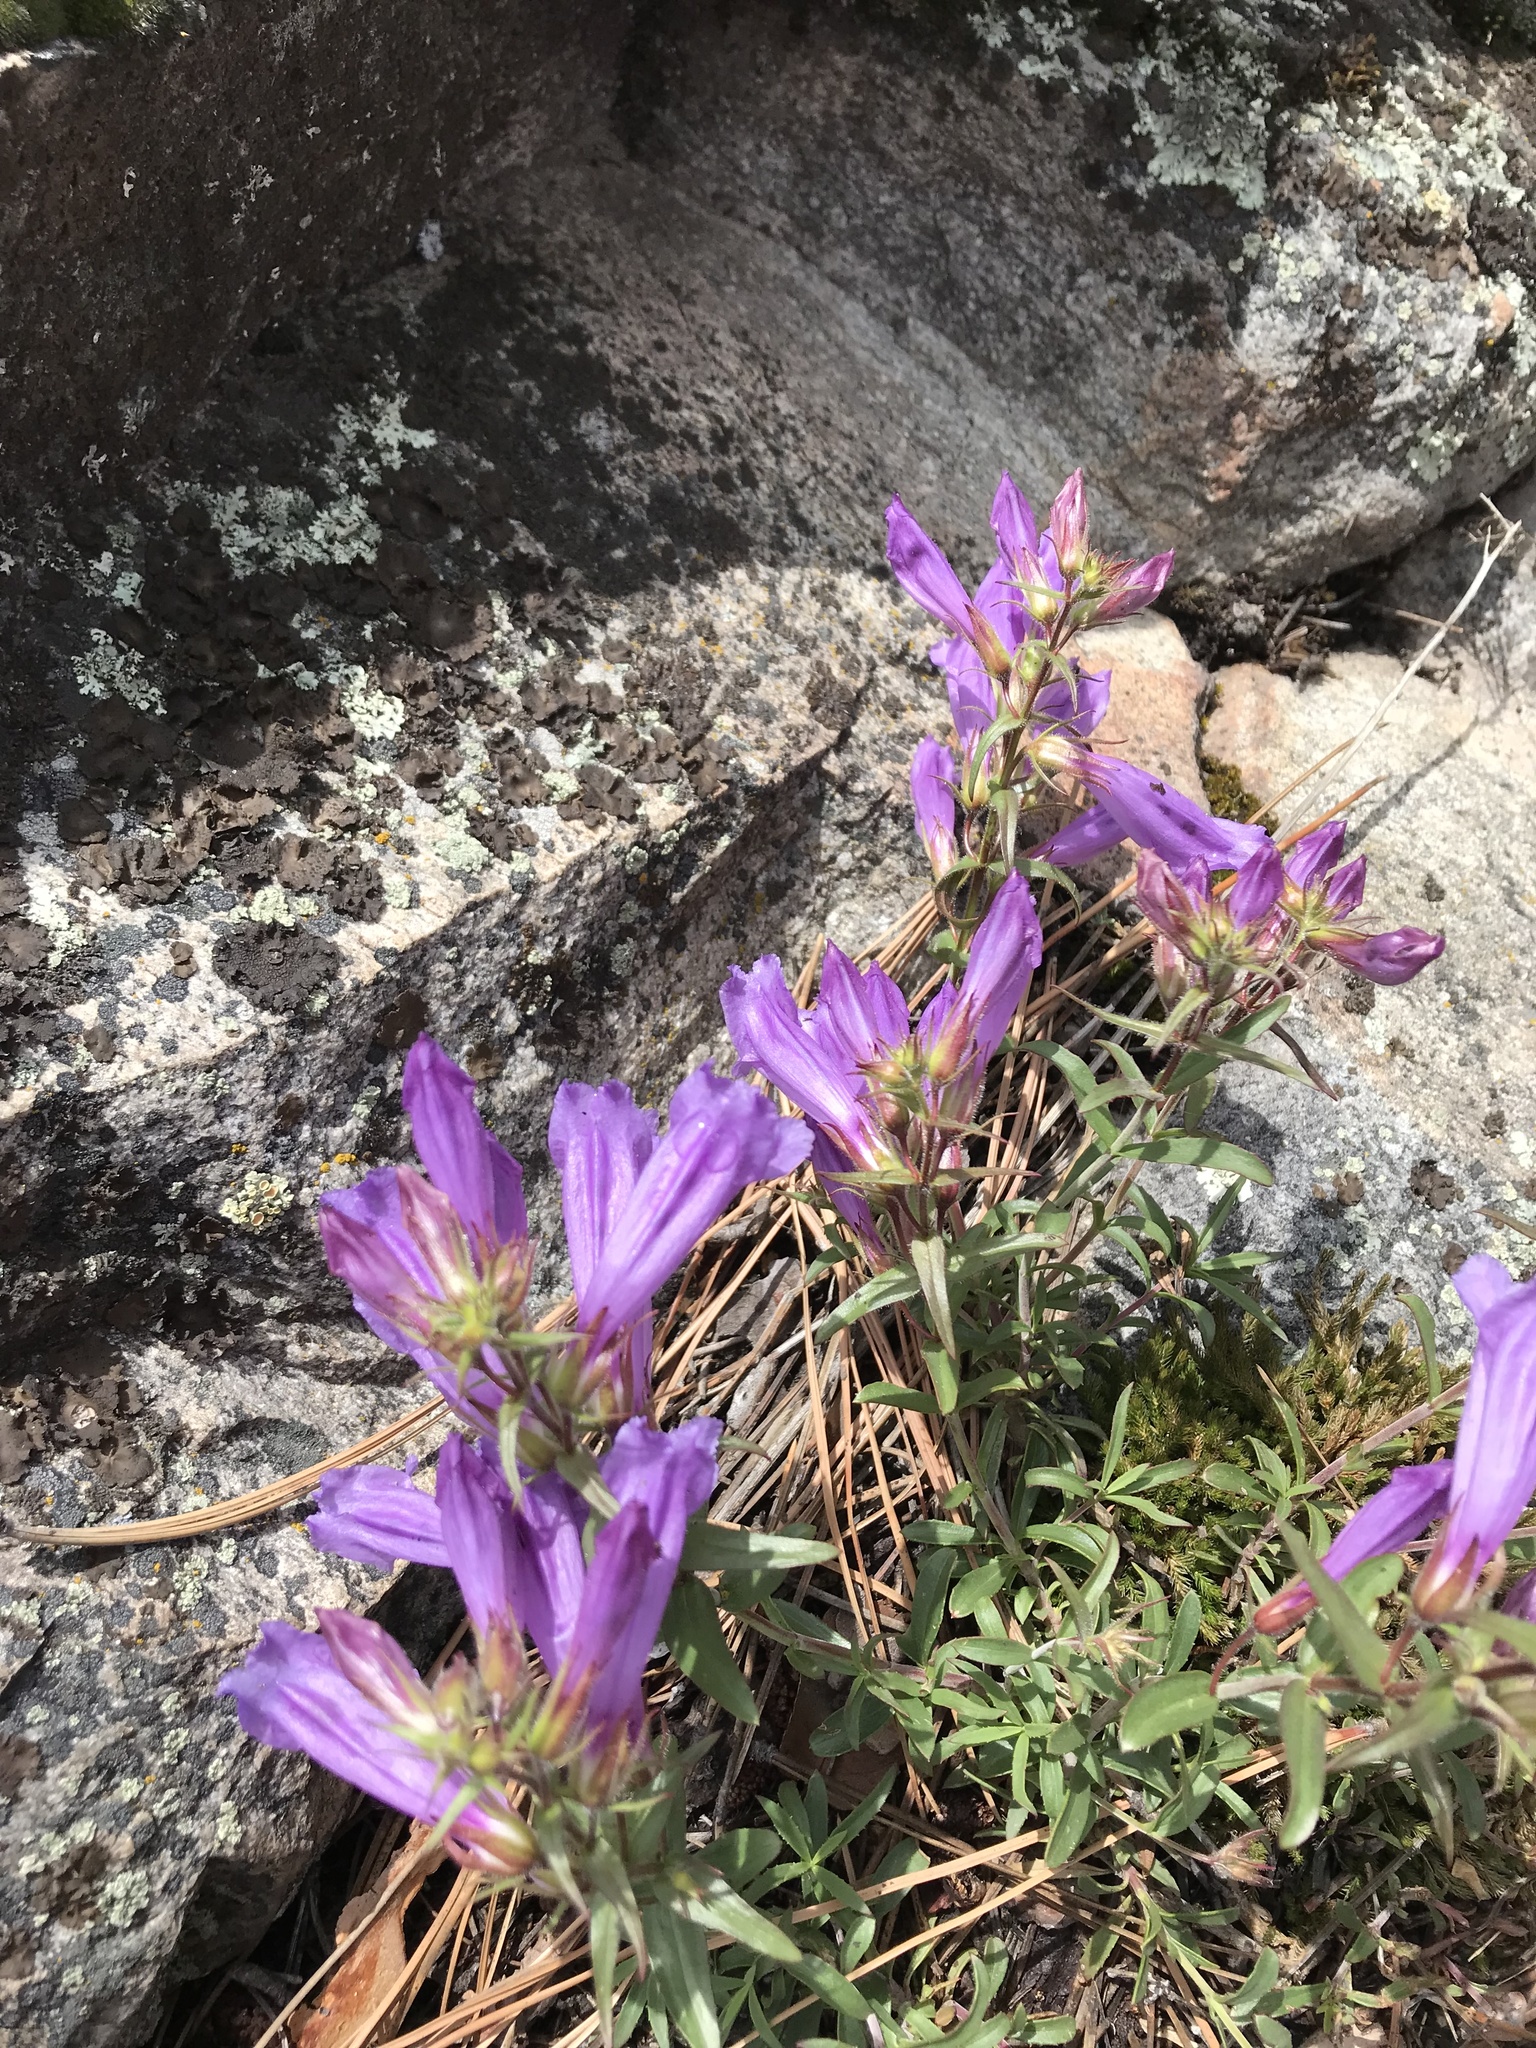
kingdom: Plantae
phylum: Tracheophyta
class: Magnoliopsida
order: Lamiales
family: Plantaginaceae
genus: Penstemon
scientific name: Penstemon fruticosus
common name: Bush penstemon
